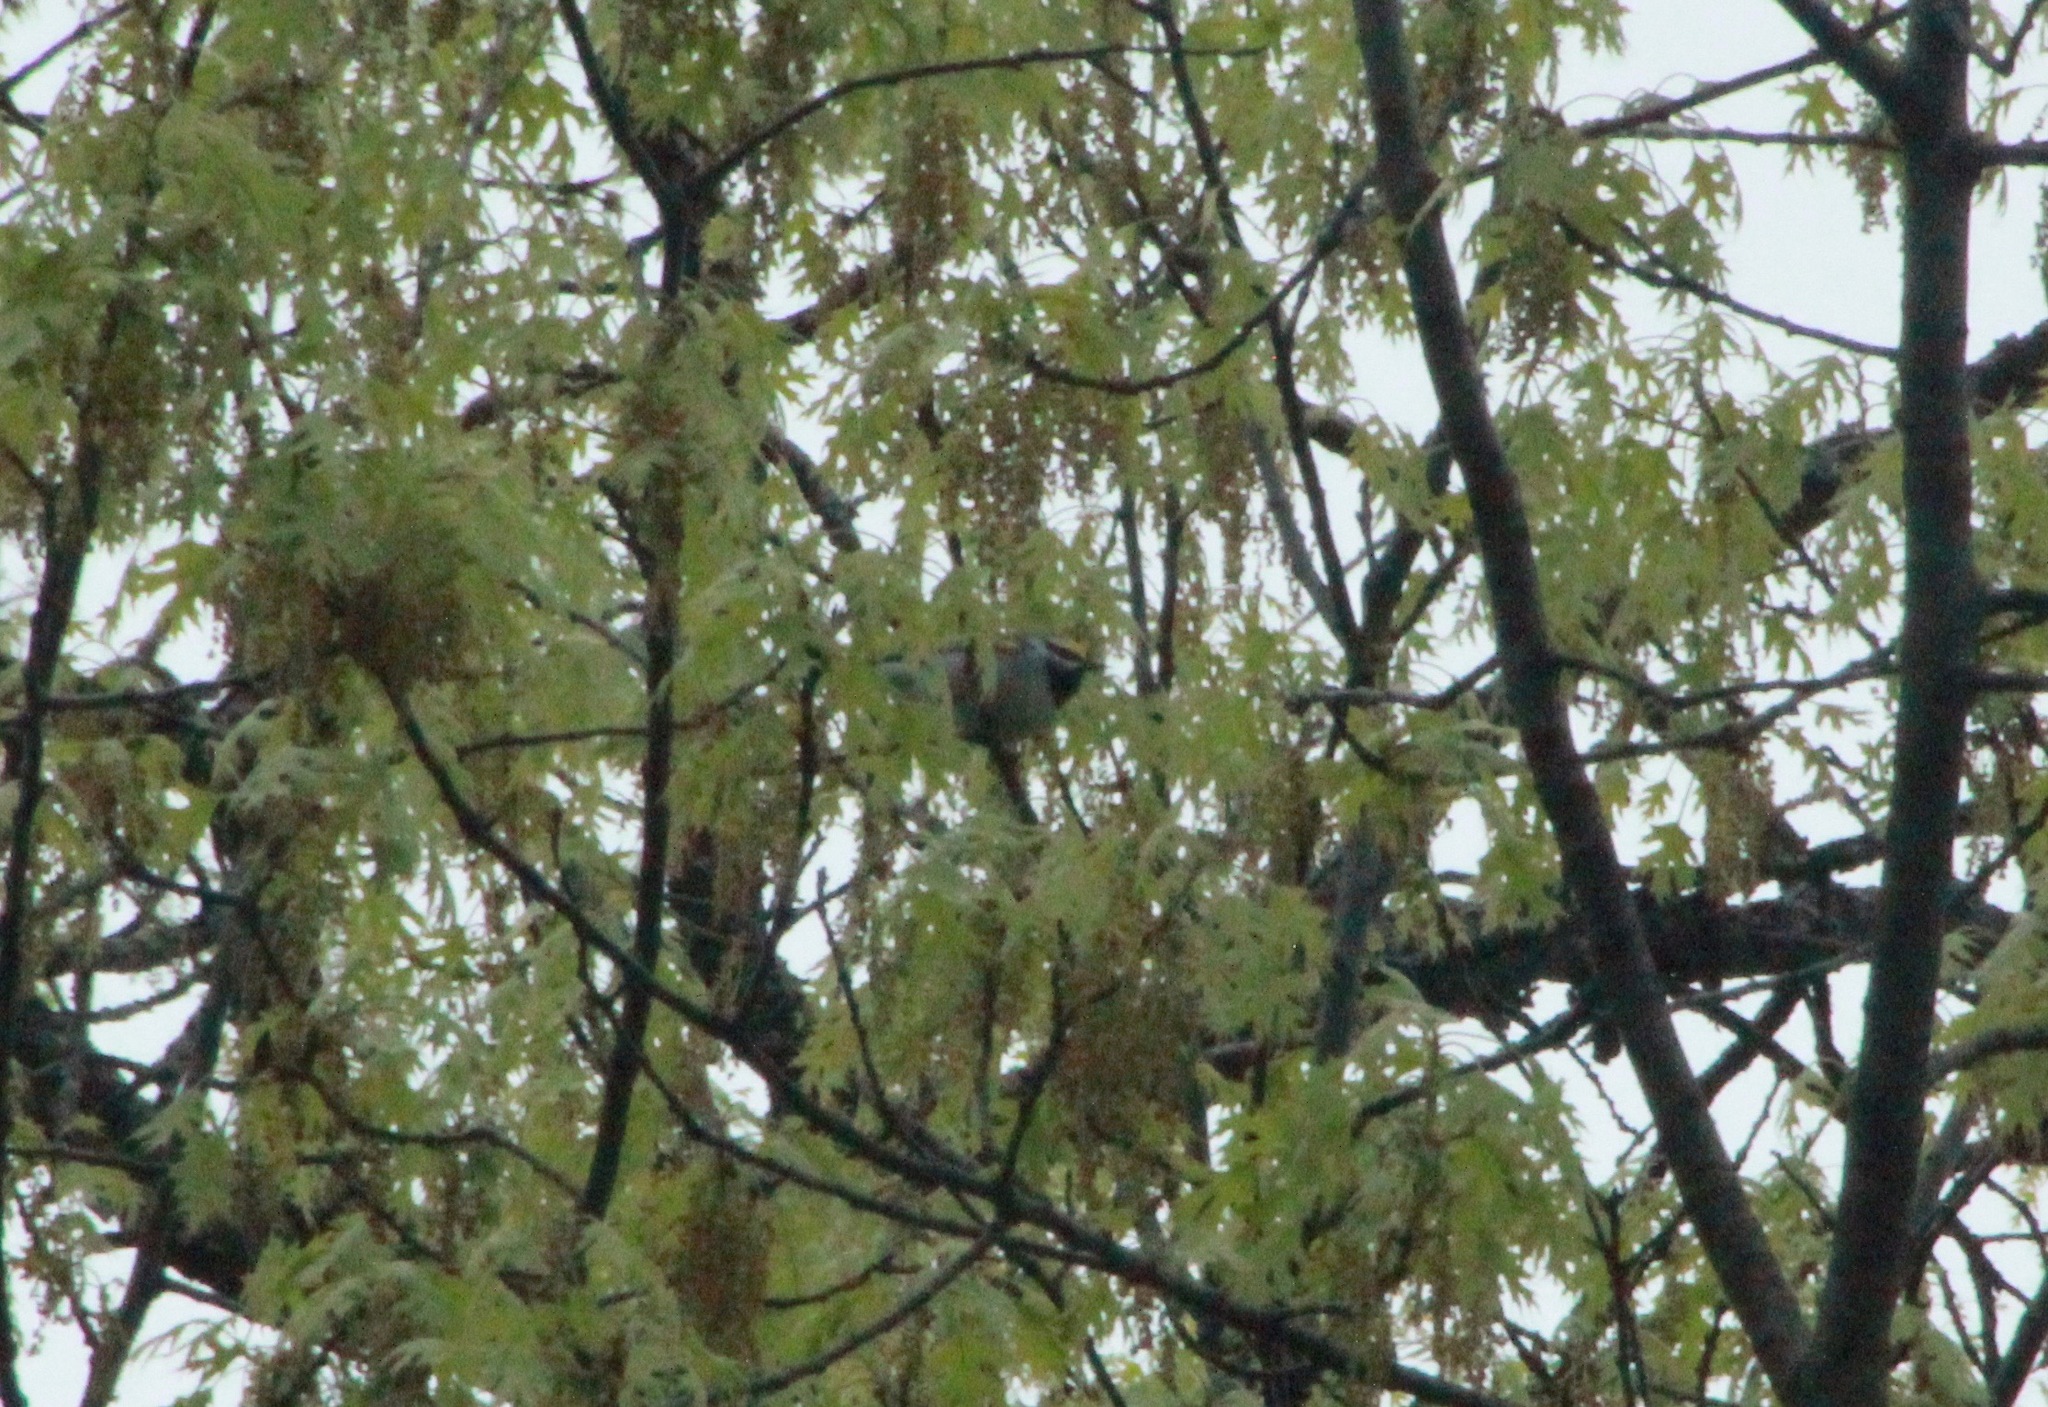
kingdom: Animalia
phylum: Chordata
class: Aves
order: Passeriformes
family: Parulidae
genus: Vermivora
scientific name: Vermivora chrysoptera
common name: Golden-winged warbler
